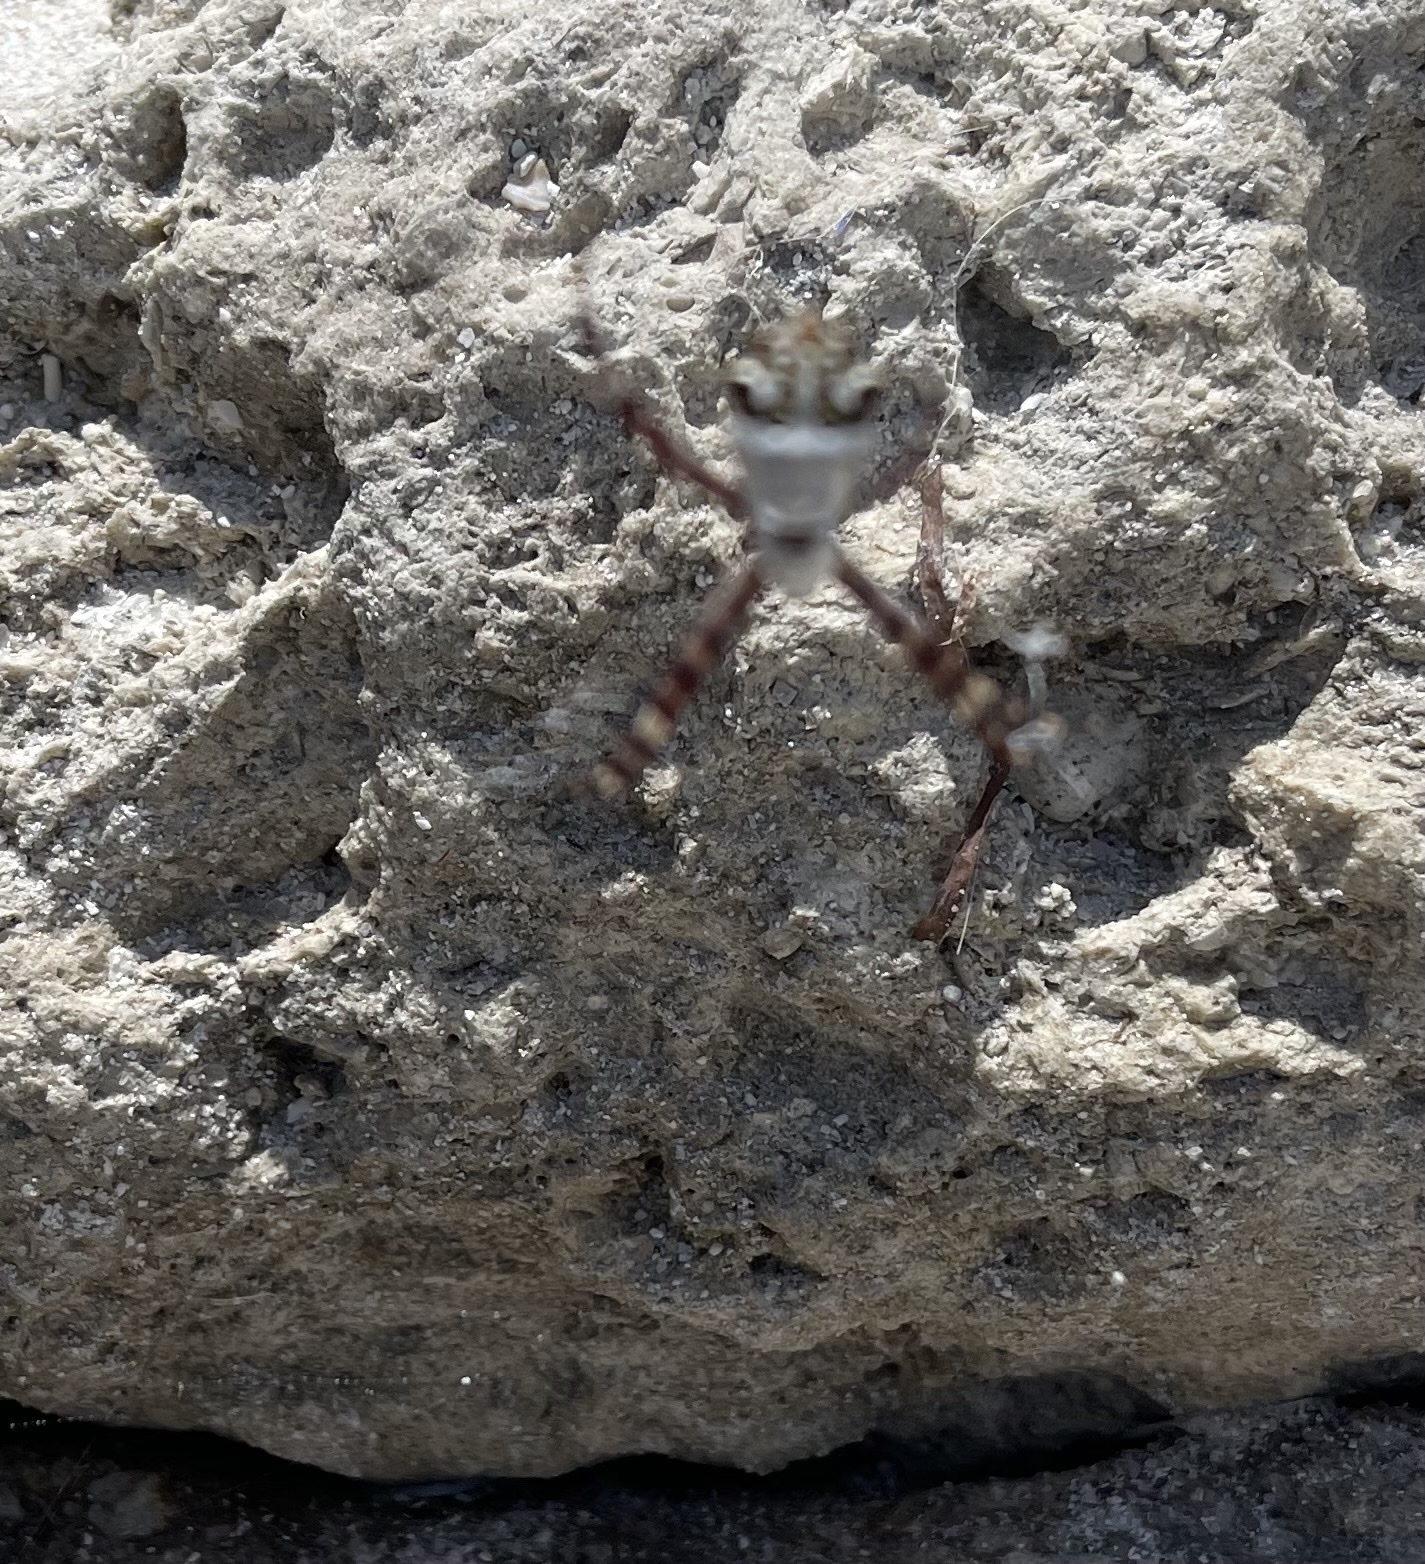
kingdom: Animalia
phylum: Arthropoda
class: Arachnida
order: Araneae
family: Araneidae
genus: Argiope
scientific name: Argiope argentata
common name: Orb weavers
